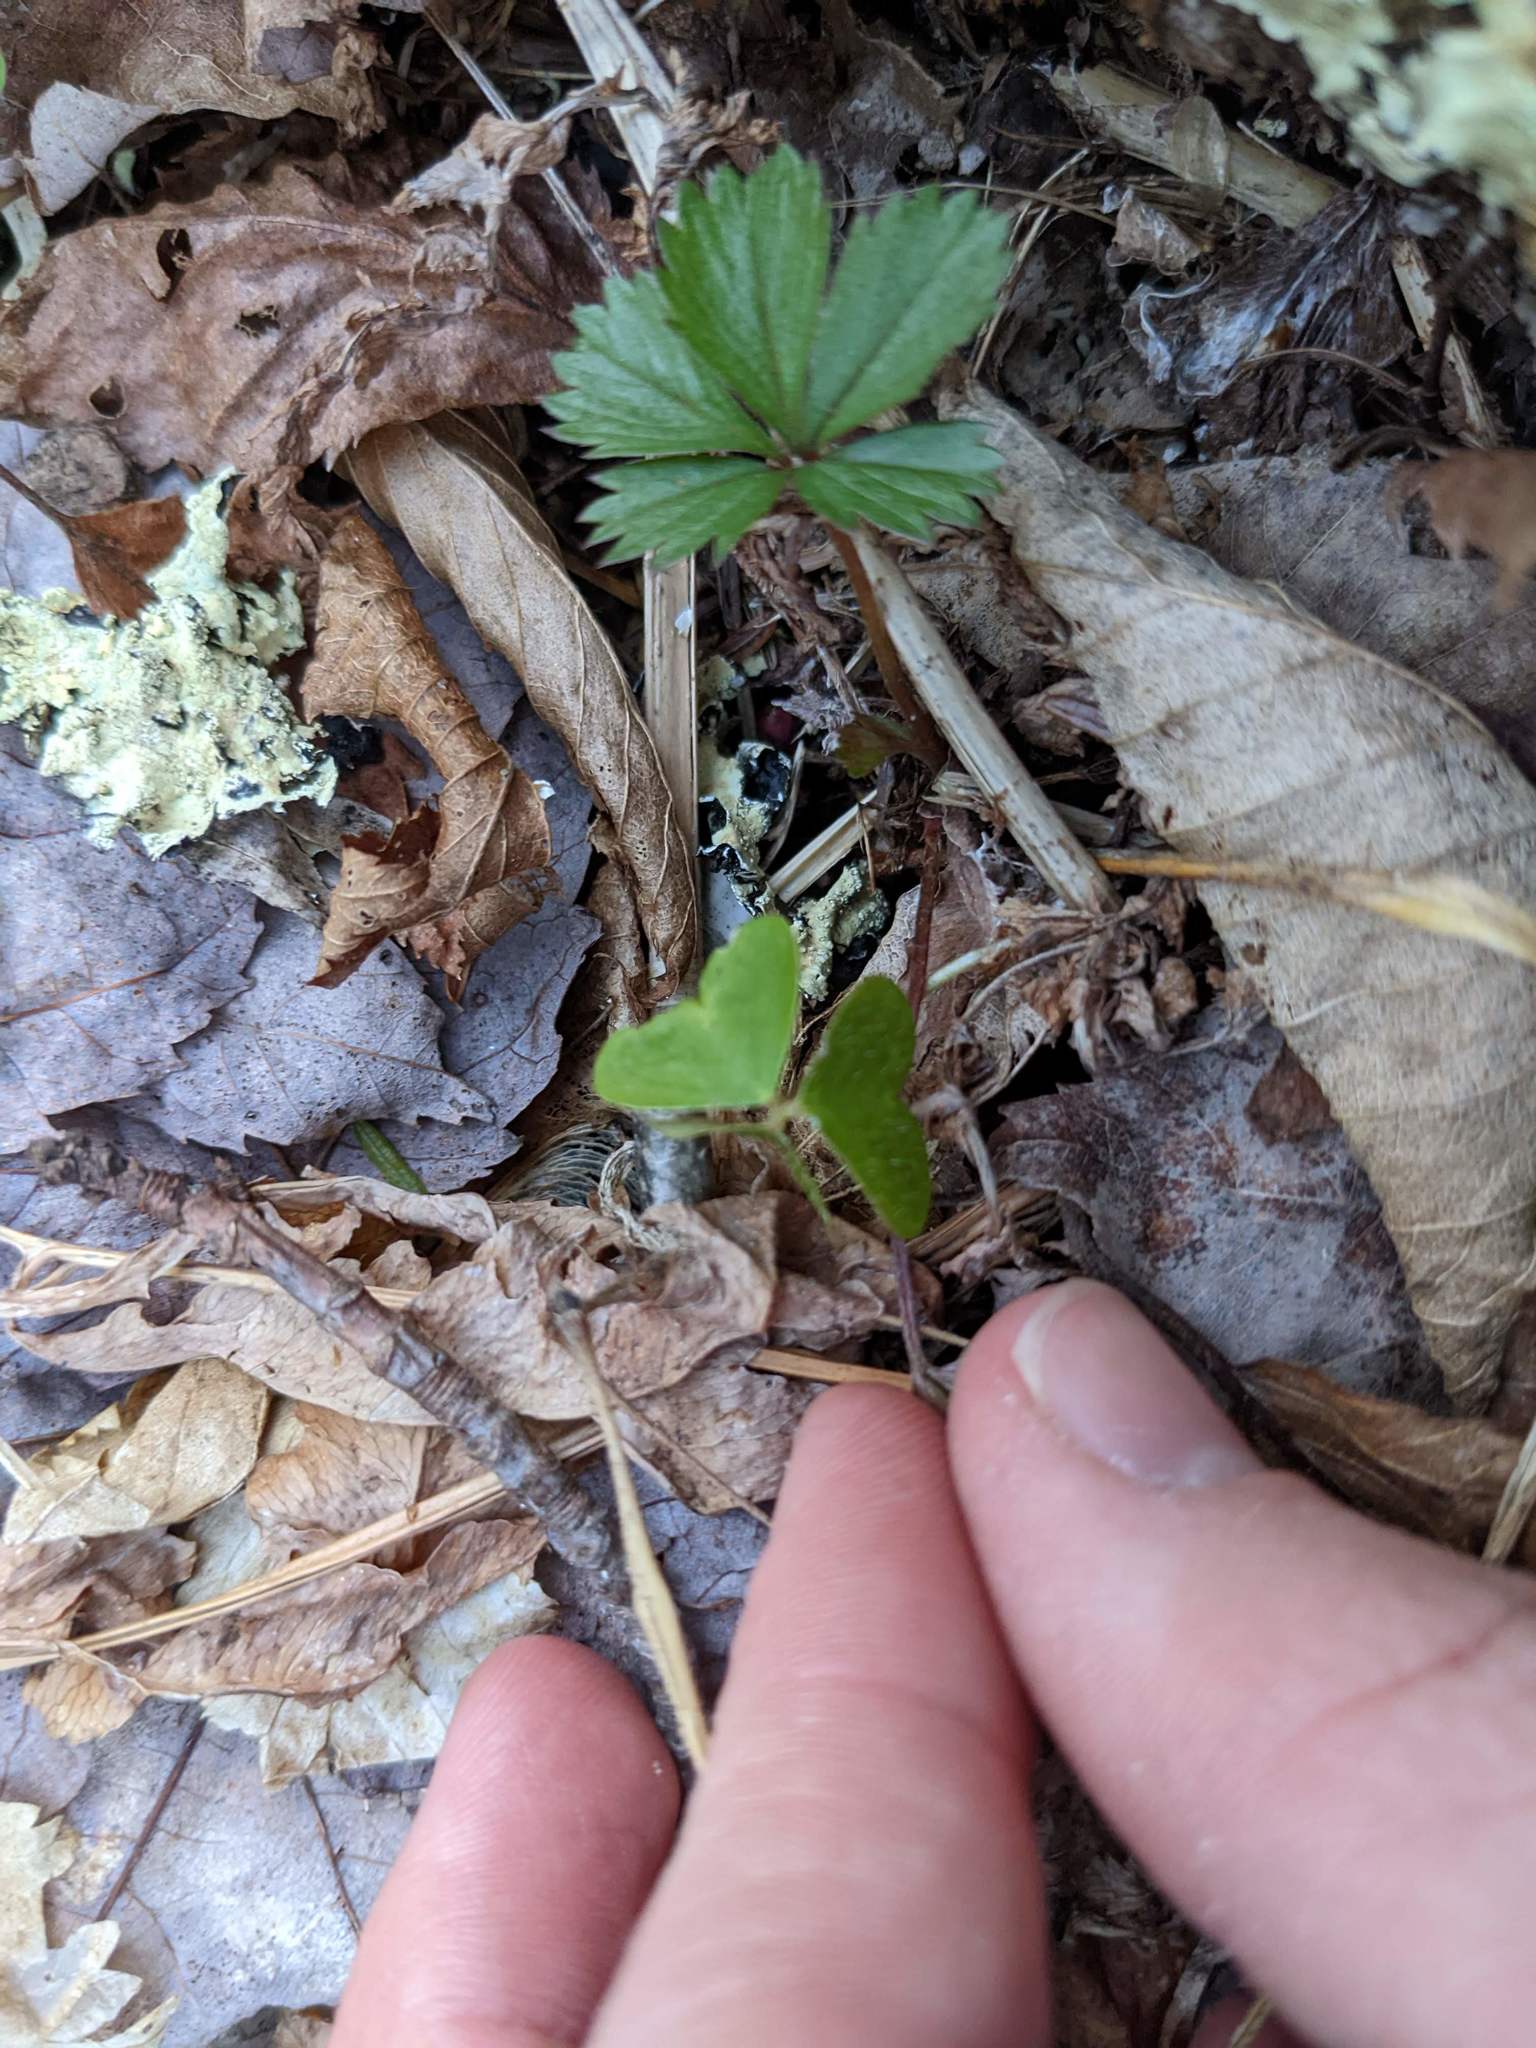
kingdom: Plantae
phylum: Tracheophyta
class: Magnoliopsida
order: Oxalidales
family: Oxalidaceae
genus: Oxalis
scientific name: Oxalis montana
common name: American wood-sorrel
